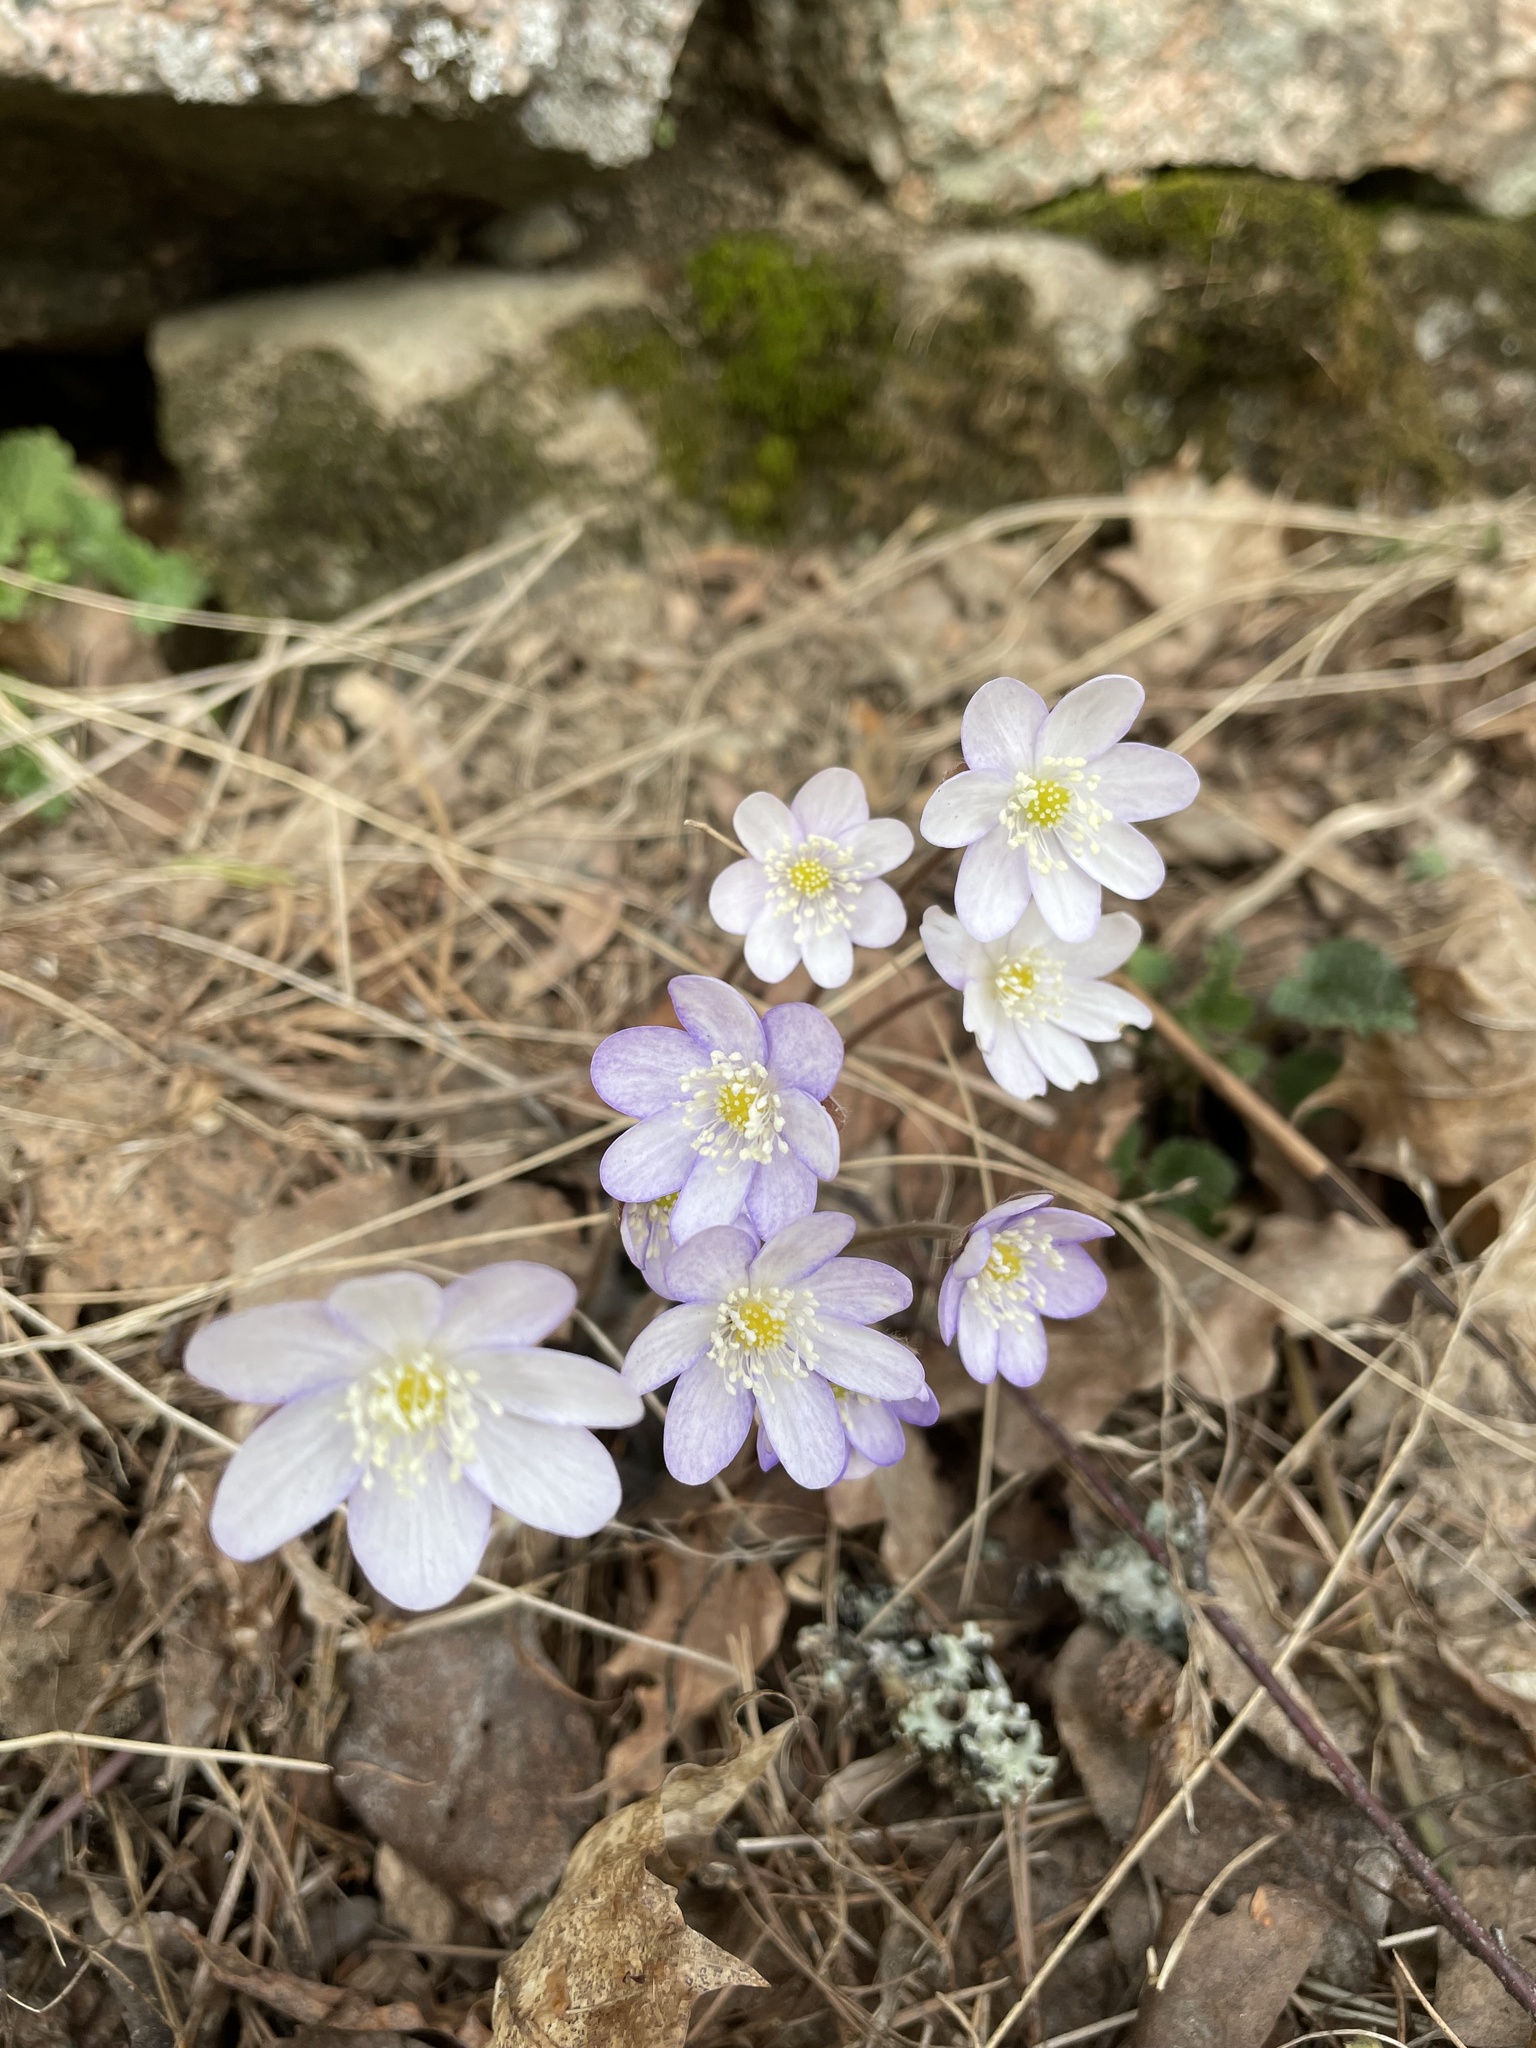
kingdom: Plantae
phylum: Tracheophyta
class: Magnoliopsida
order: Ranunculales
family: Ranunculaceae
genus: Hepatica
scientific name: Hepatica nobilis
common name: Liverleaf
